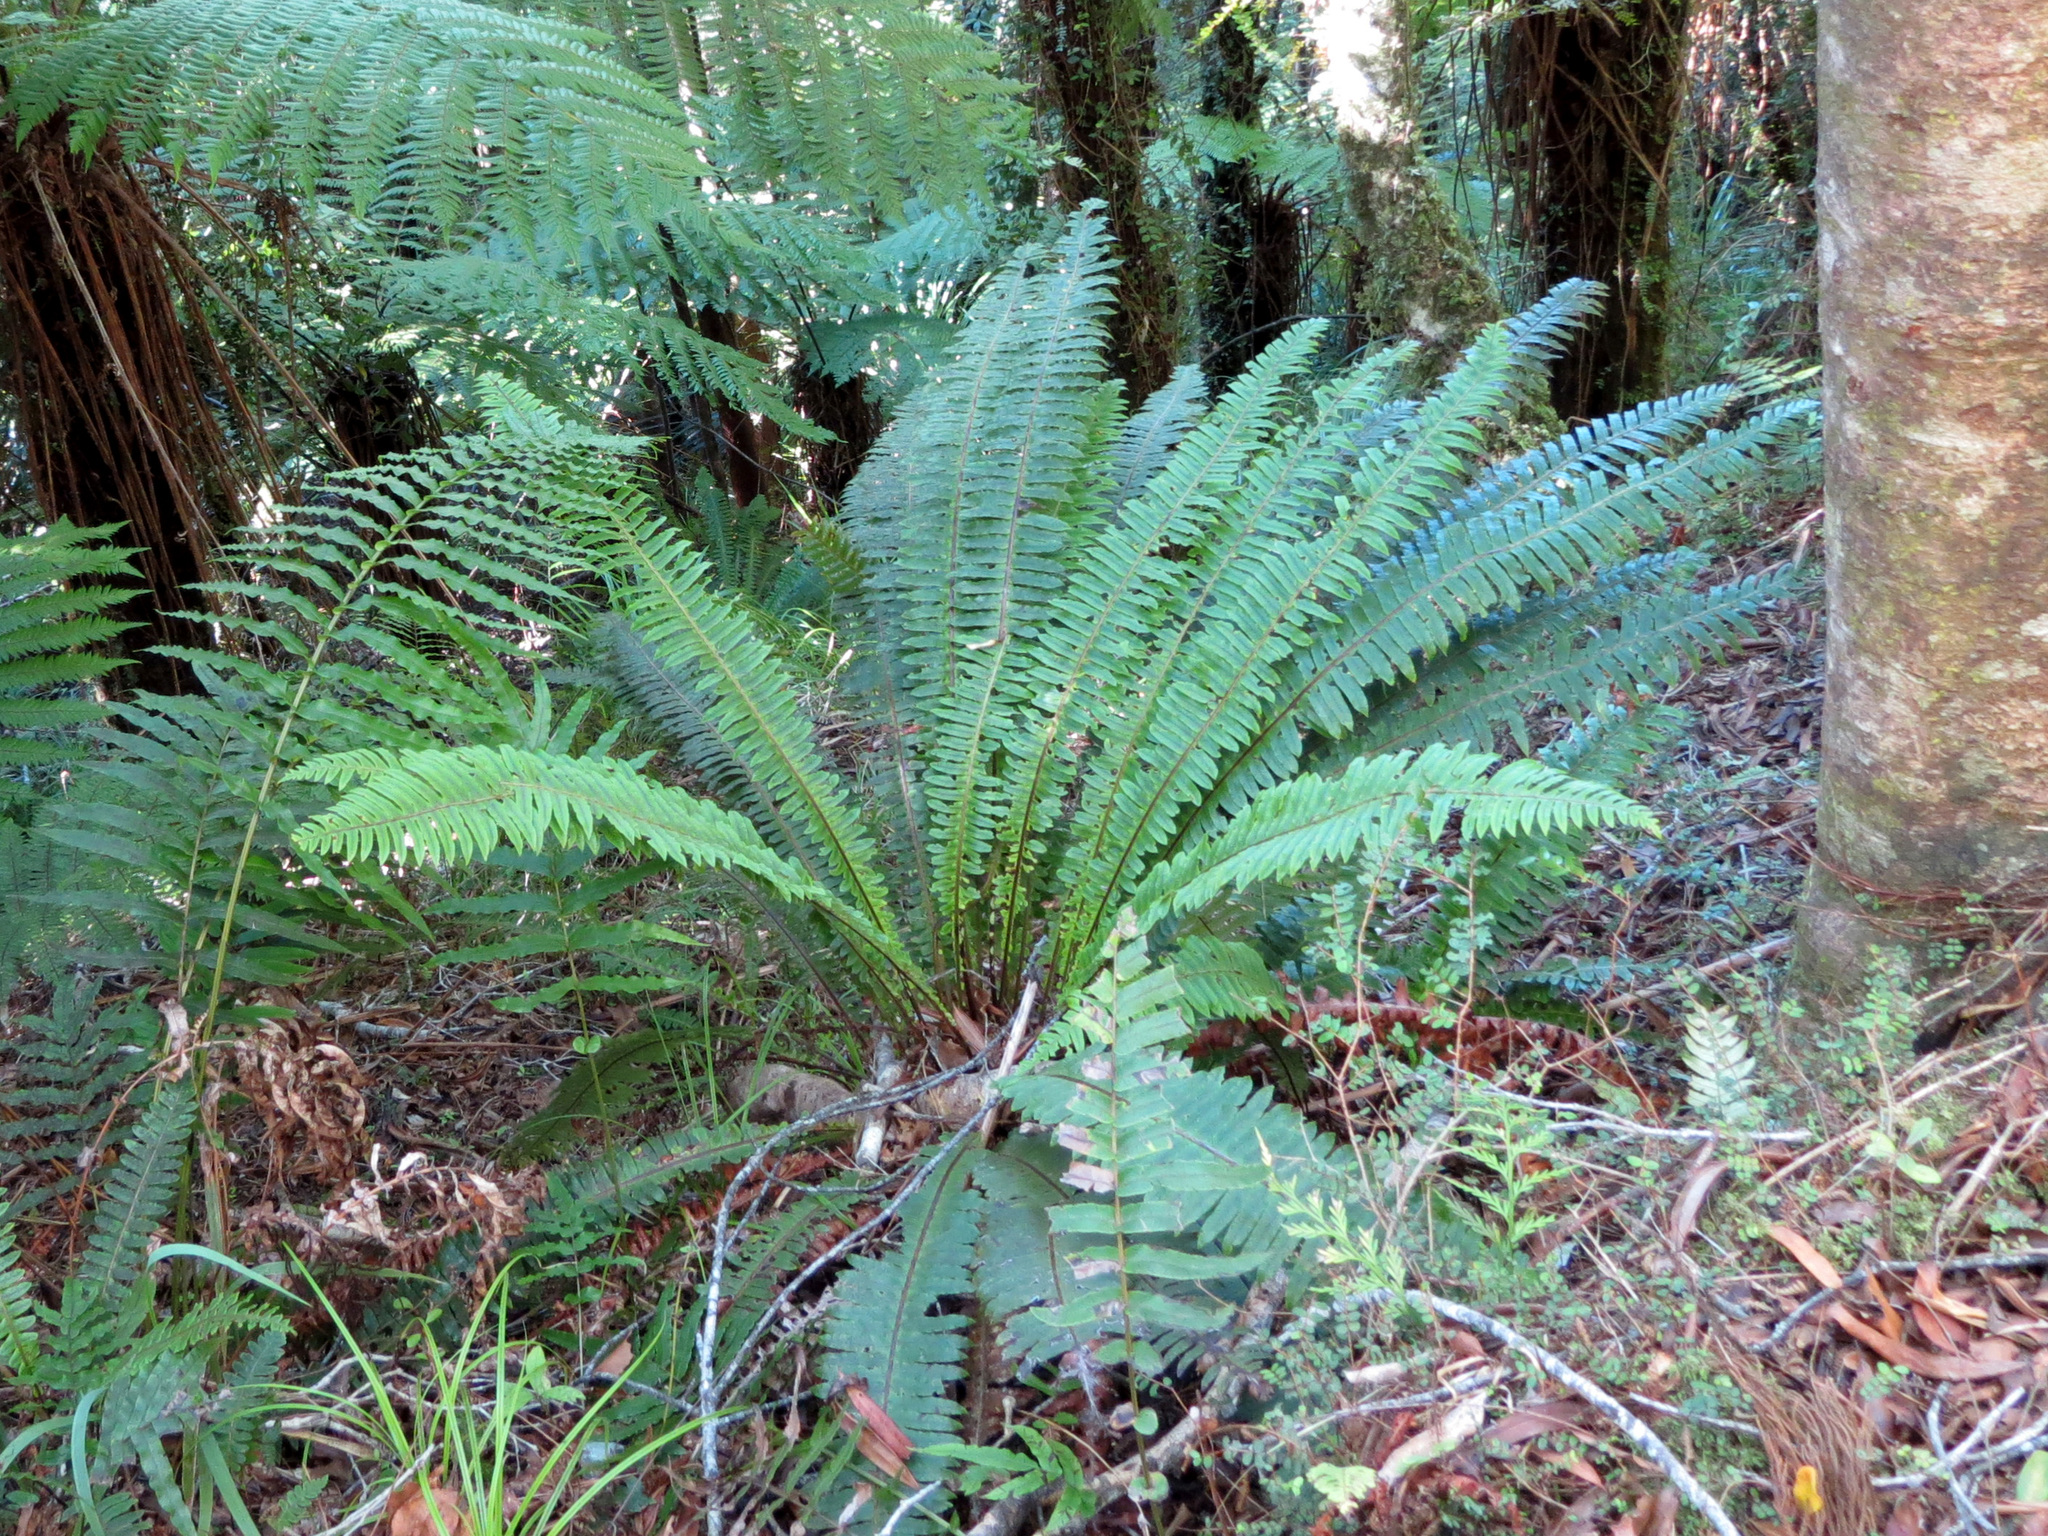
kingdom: Plantae
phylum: Tracheophyta
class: Polypodiopsida
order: Polypodiales
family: Blechnaceae
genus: Lomaria
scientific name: Lomaria discolor
